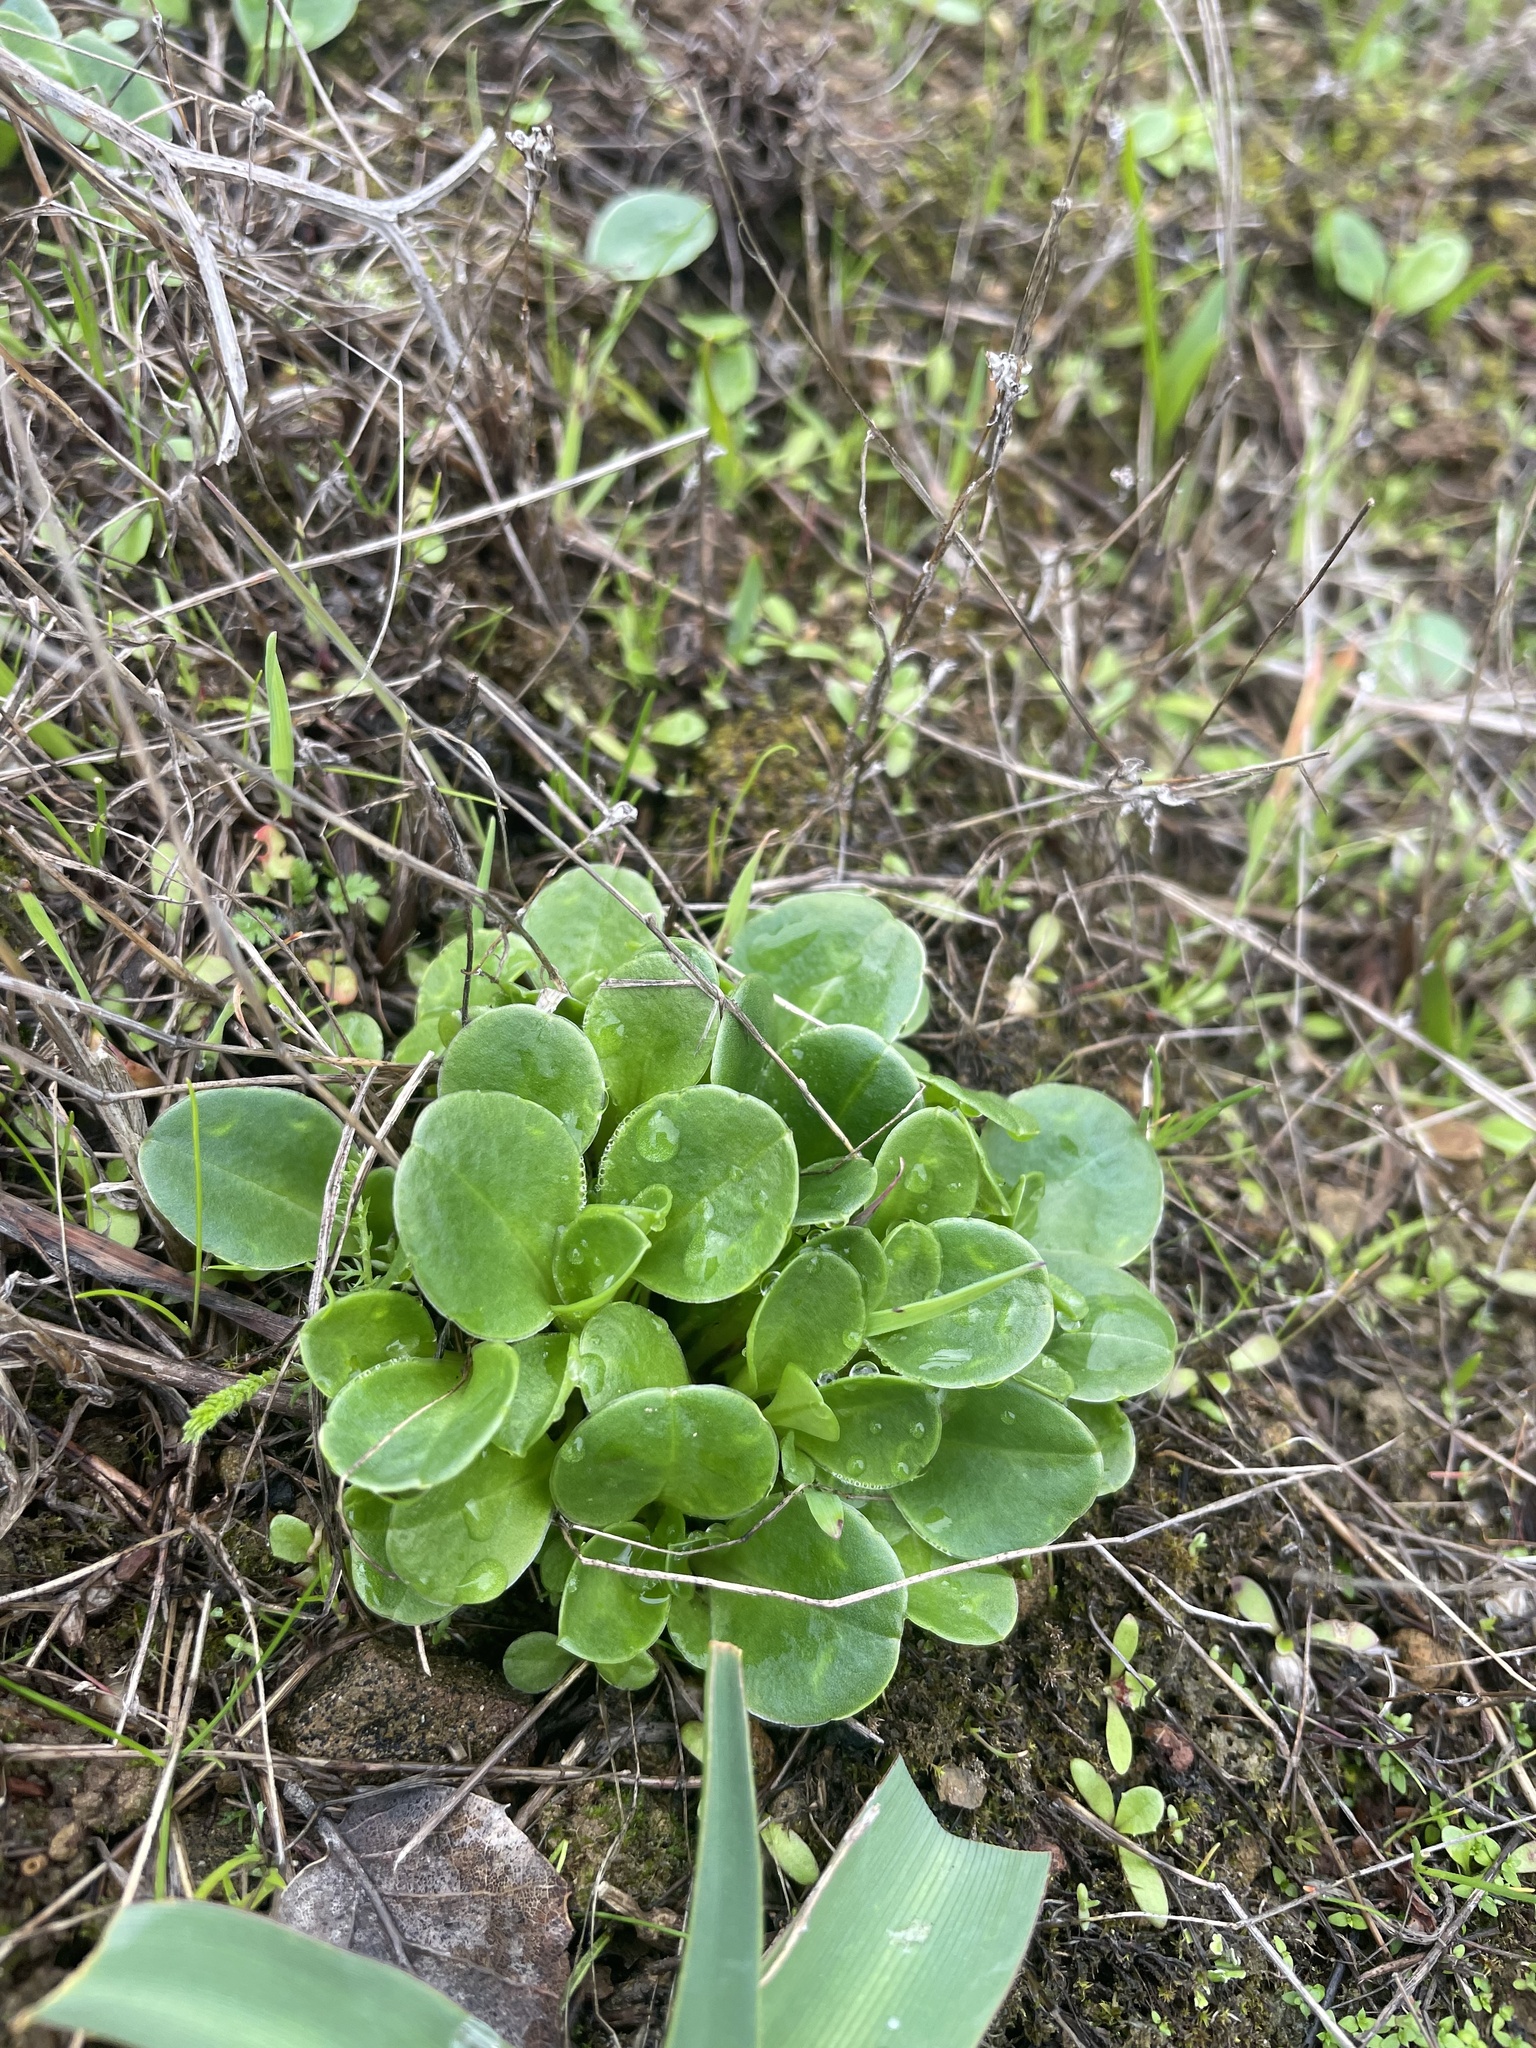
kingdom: Plantae
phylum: Tracheophyta
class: Magnoliopsida
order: Ericales
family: Primulaceae
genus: Dodecatheon
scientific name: Dodecatheon hendersonii
